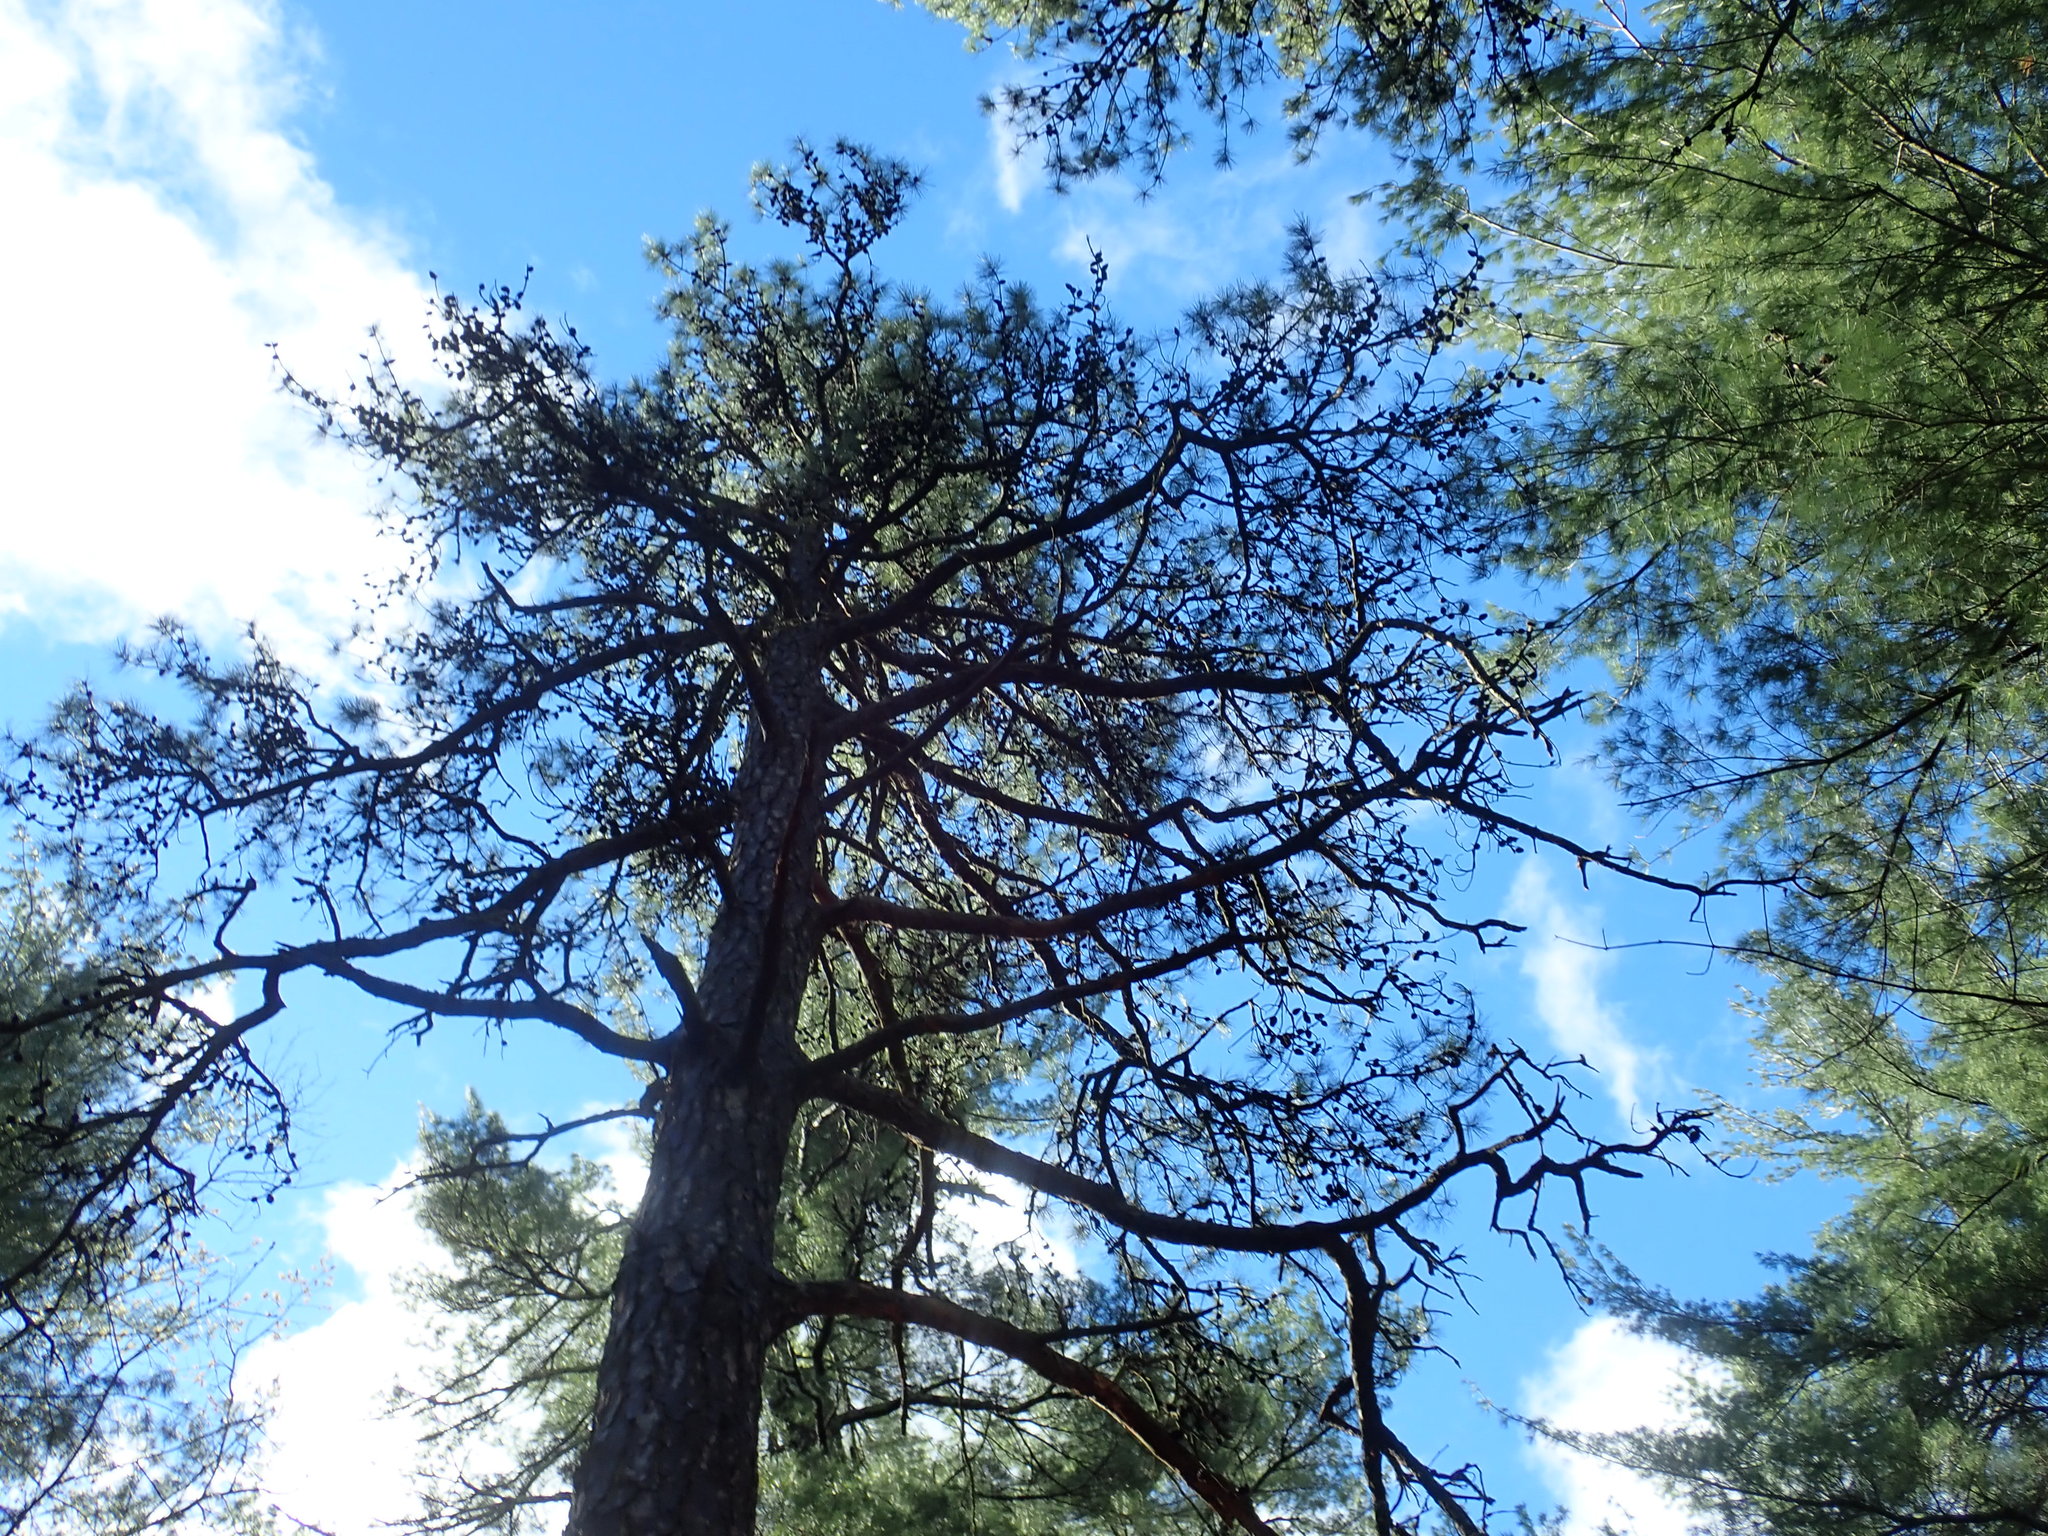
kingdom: Plantae
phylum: Tracheophyta
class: Pinopsida
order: Pinales
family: Pinaceae
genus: Pinus
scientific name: Pinus rigida
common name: Pitch pine
